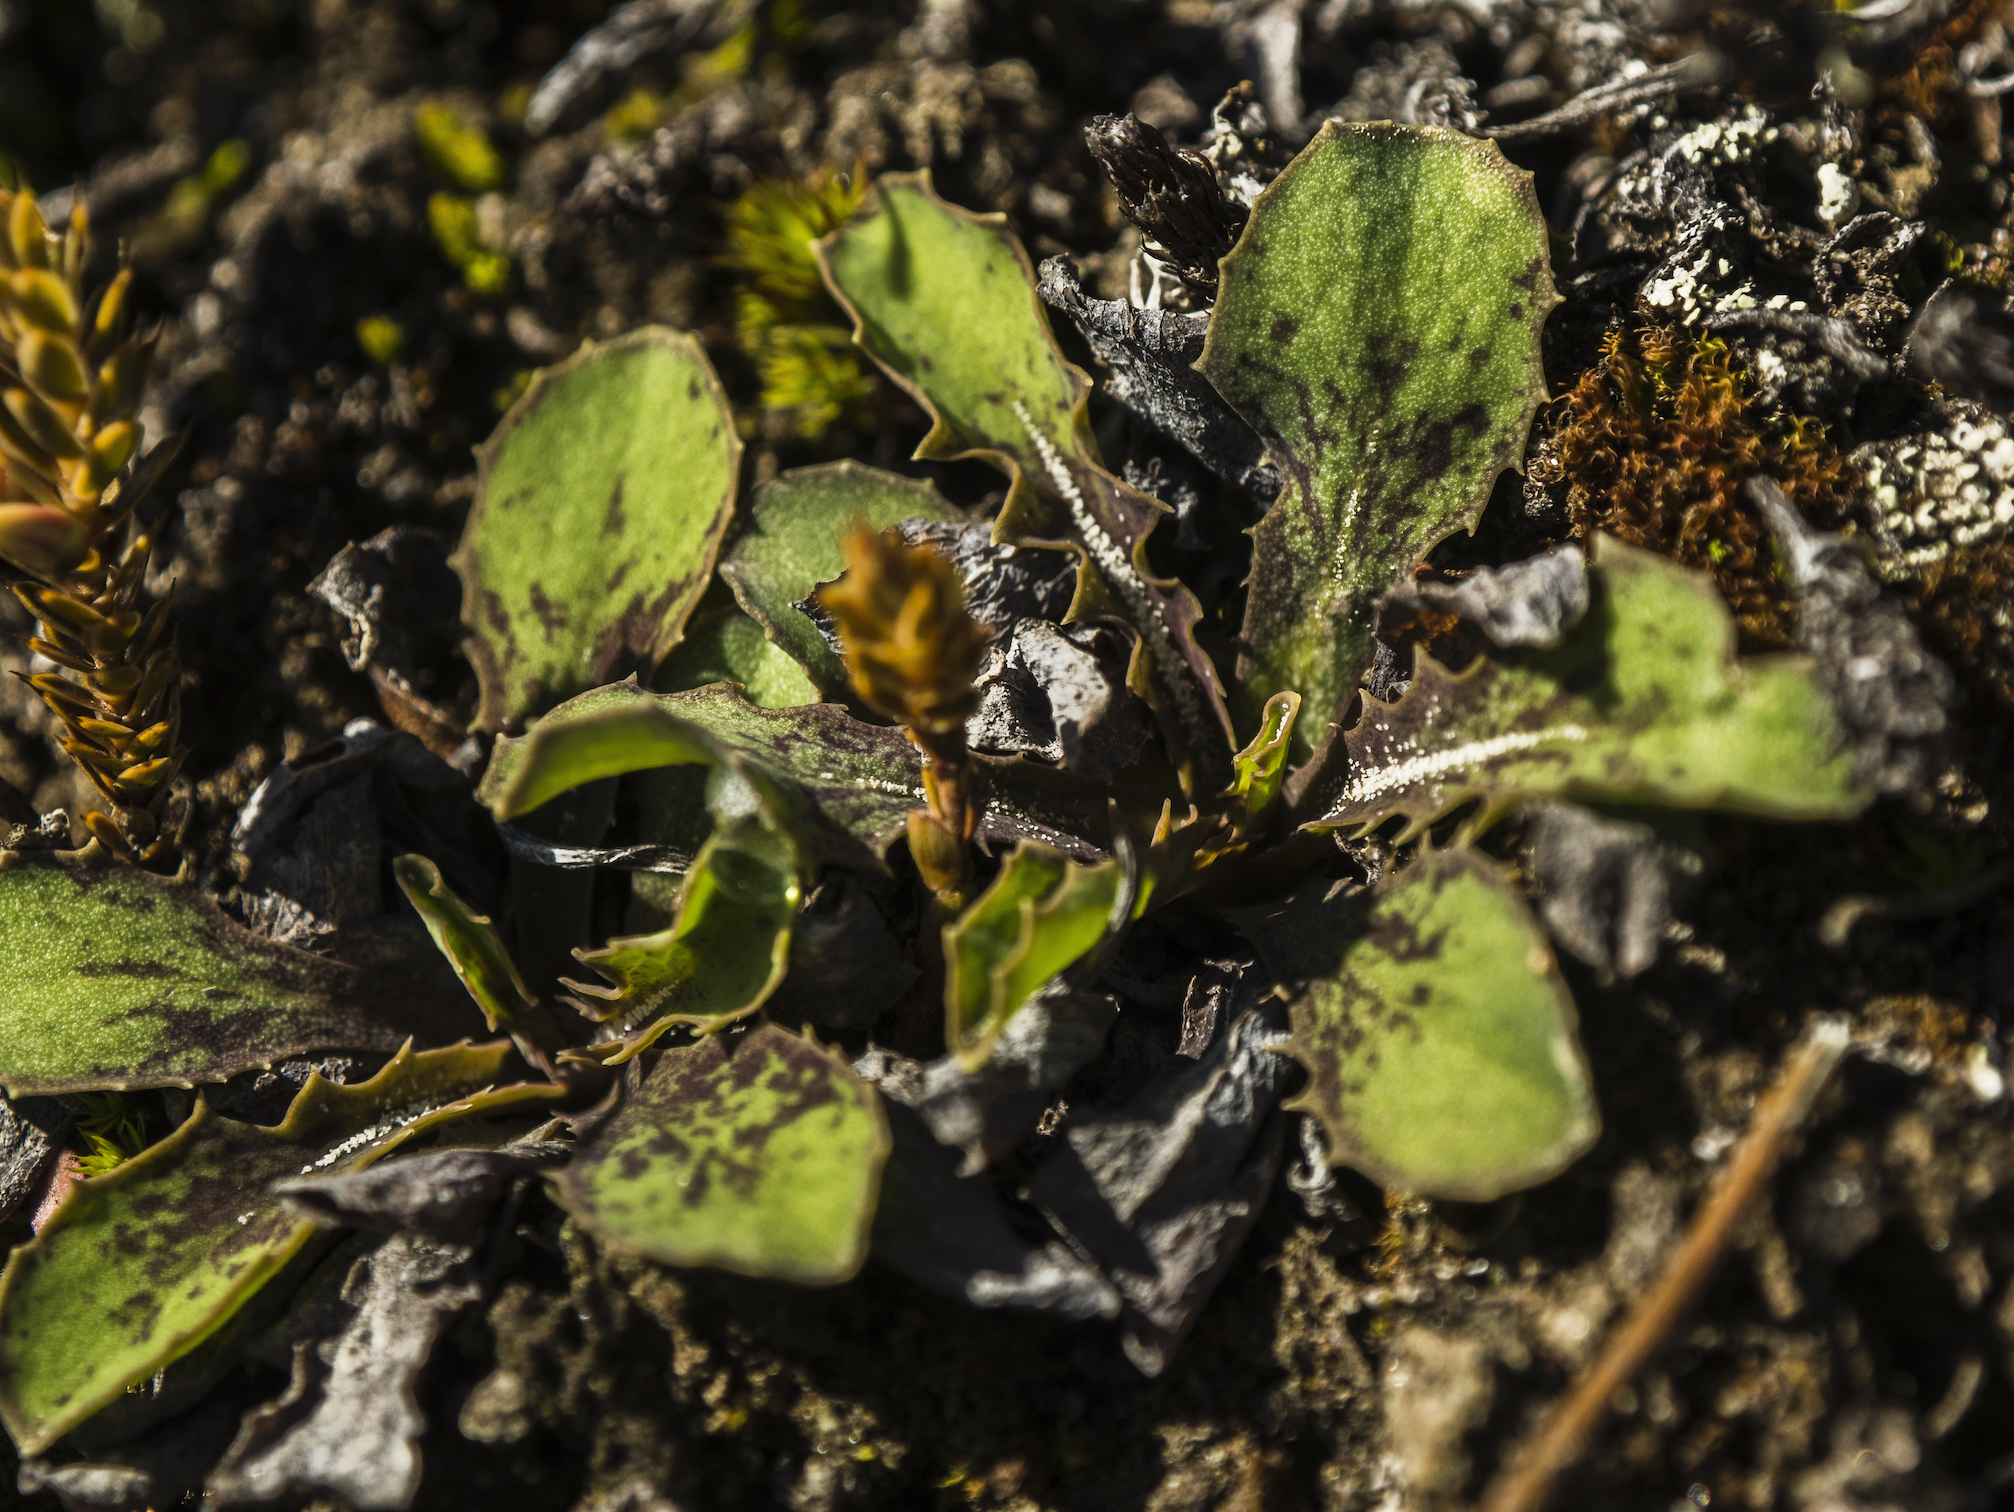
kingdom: Plantae
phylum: Tracheophyta
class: Magnoliopsida
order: Asterales
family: Asteraceae
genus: Sonchus
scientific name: Sonchus novae-zelandiae
